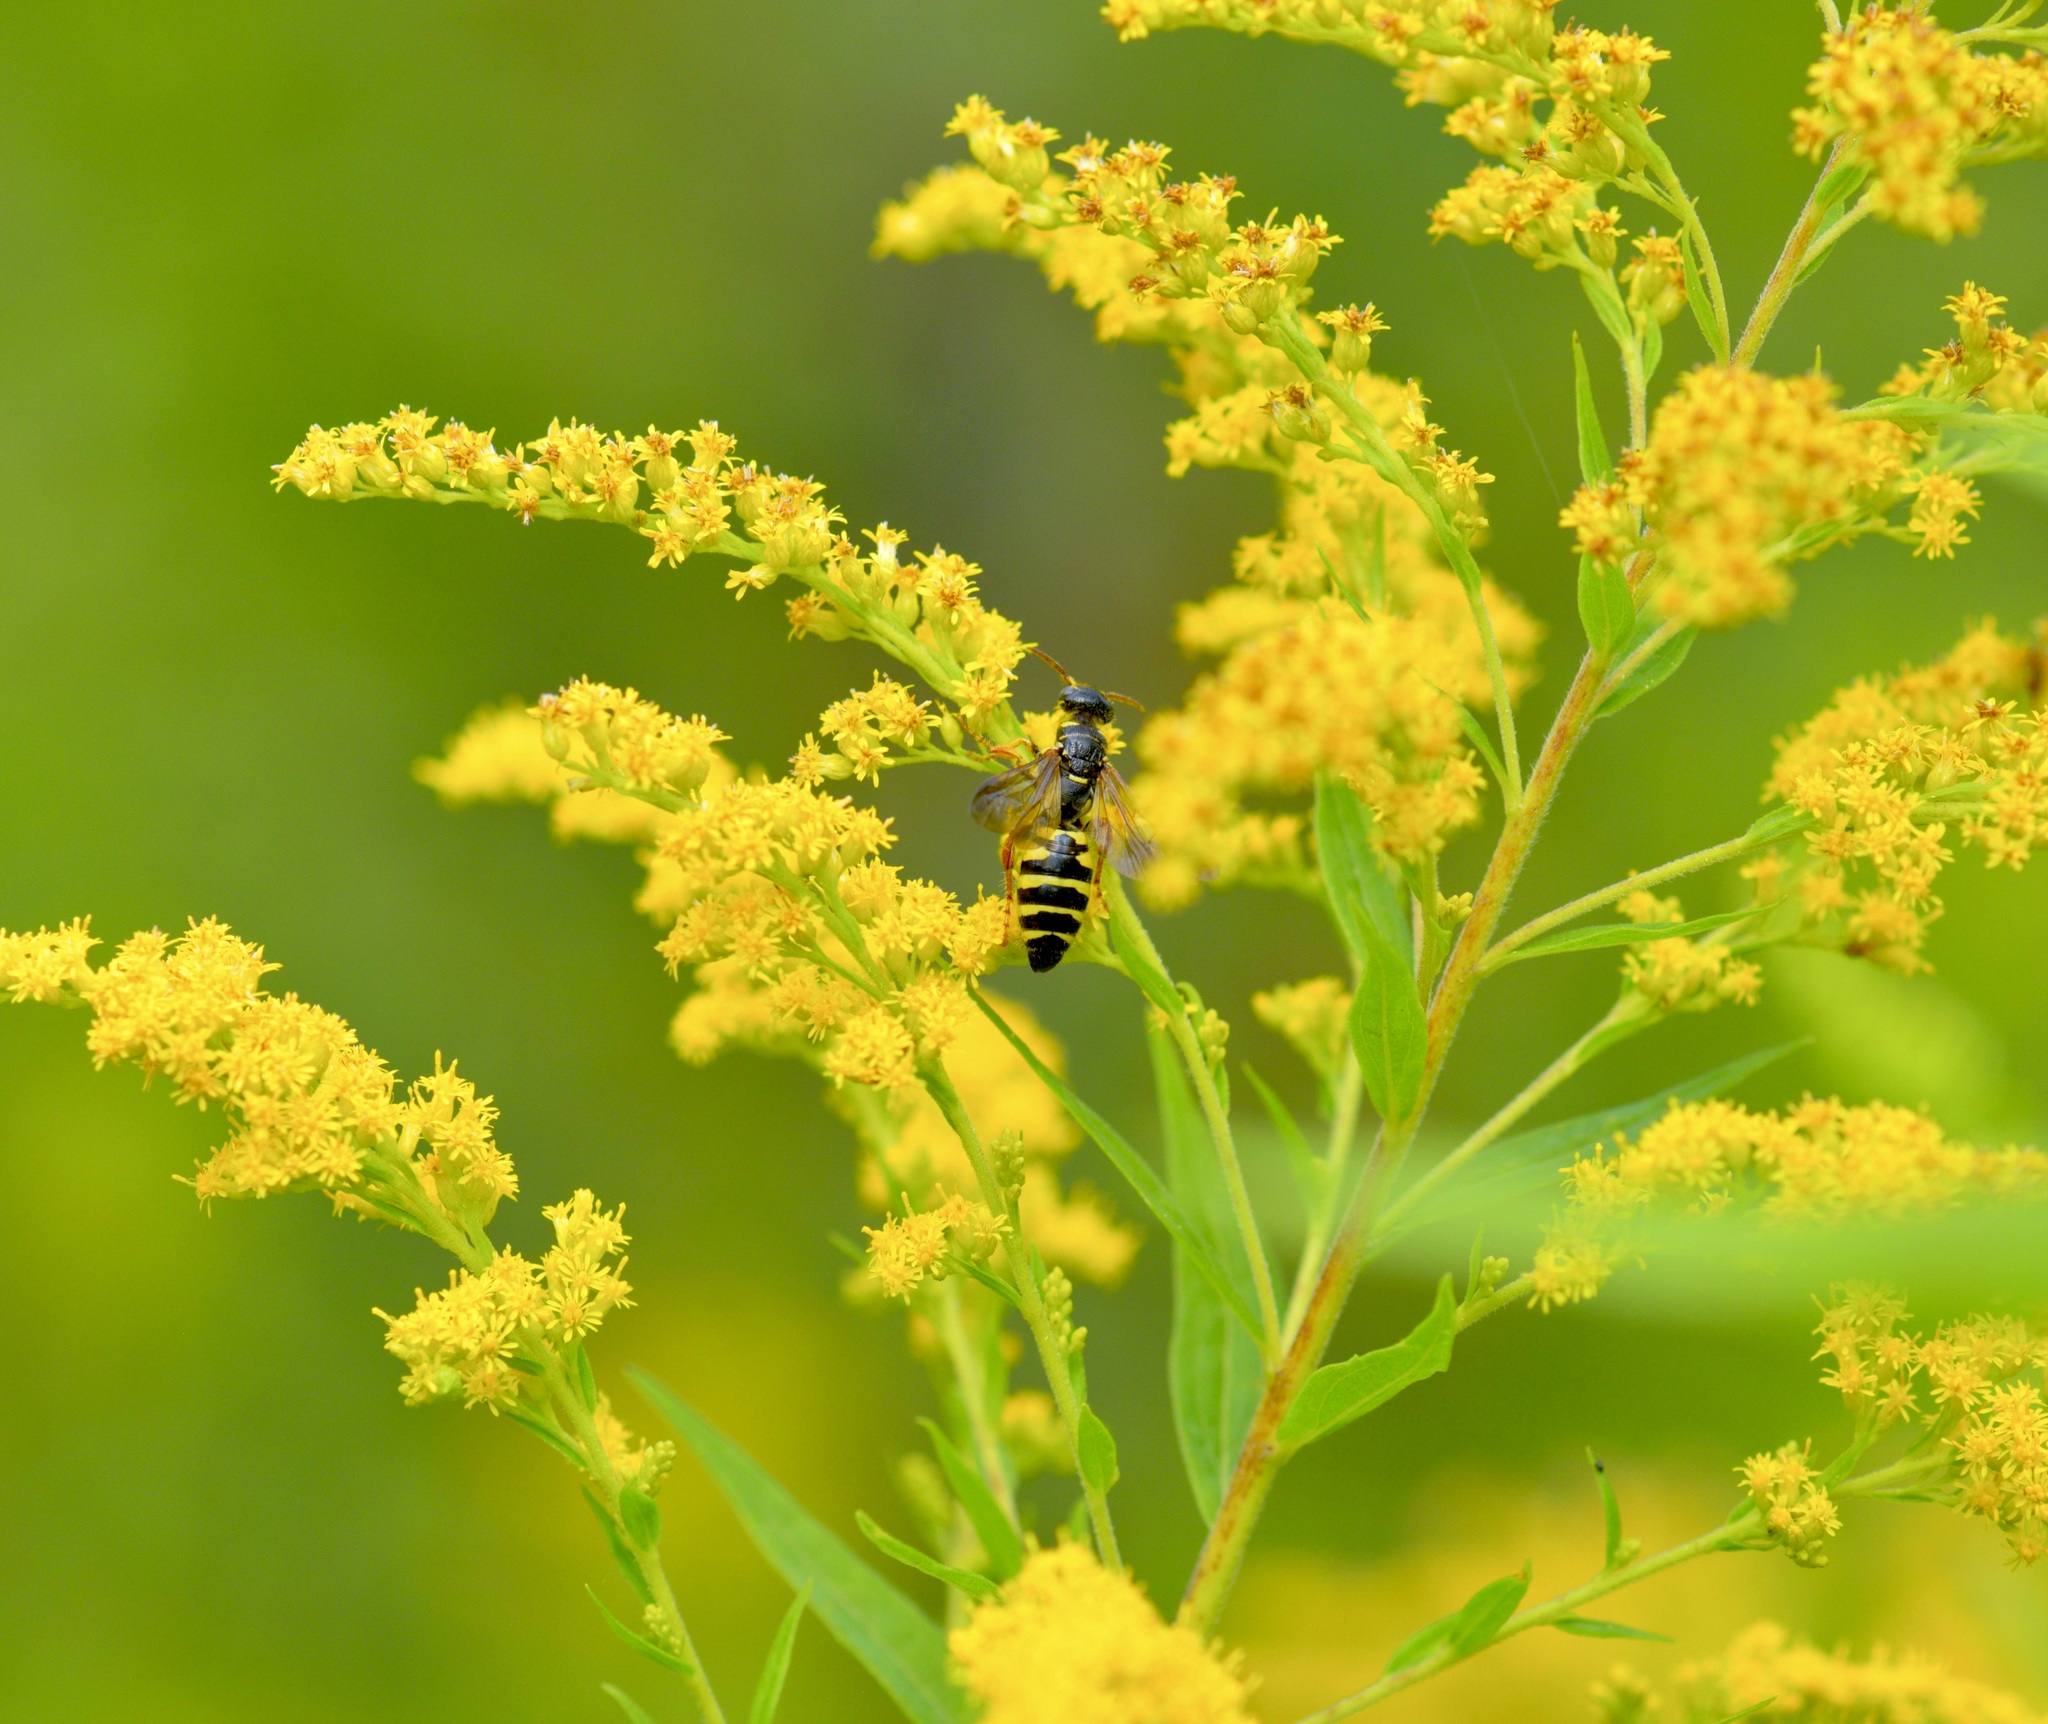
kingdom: Animalia
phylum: Arthropoda
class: Insecta
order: Hymenoptera
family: Tiphiidae
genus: Myzinum
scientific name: Myzinum quinquecinctum
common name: Five-banded thynnid wasp
